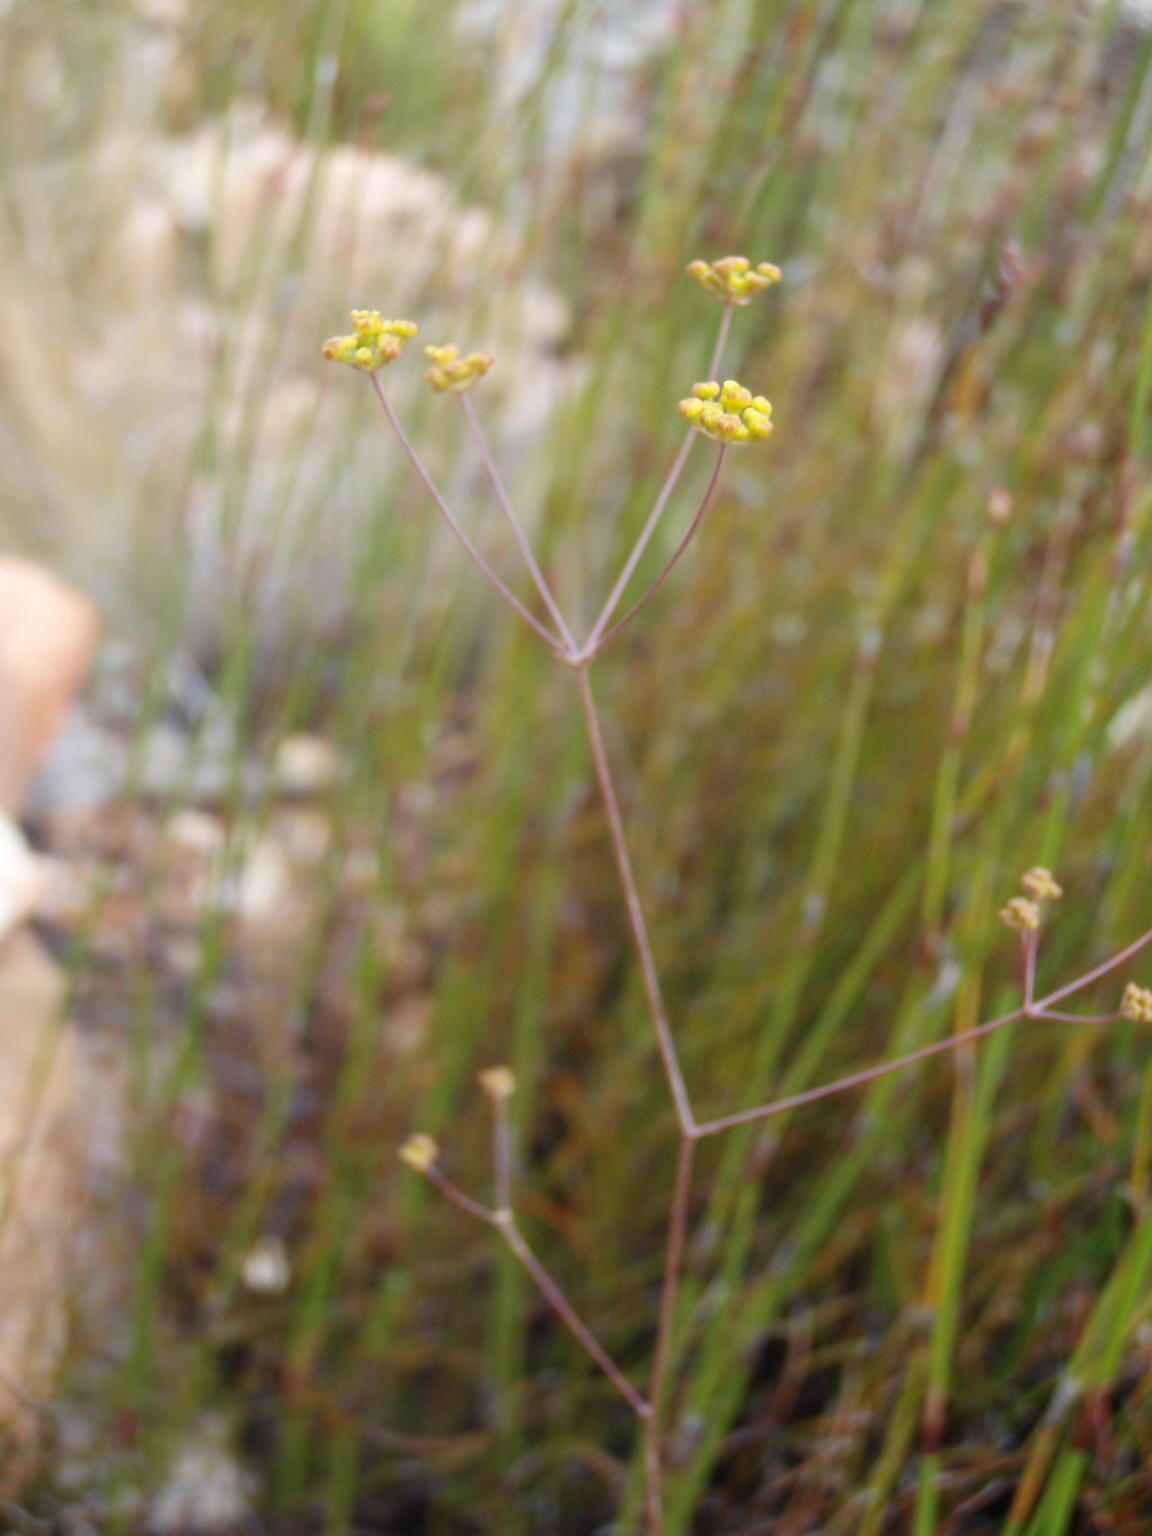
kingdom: Plantae
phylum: Tracheophyta
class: Magnoliopsida
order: Apiales
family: Apiaceae
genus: Chamarea
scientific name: Chamarea capensis
